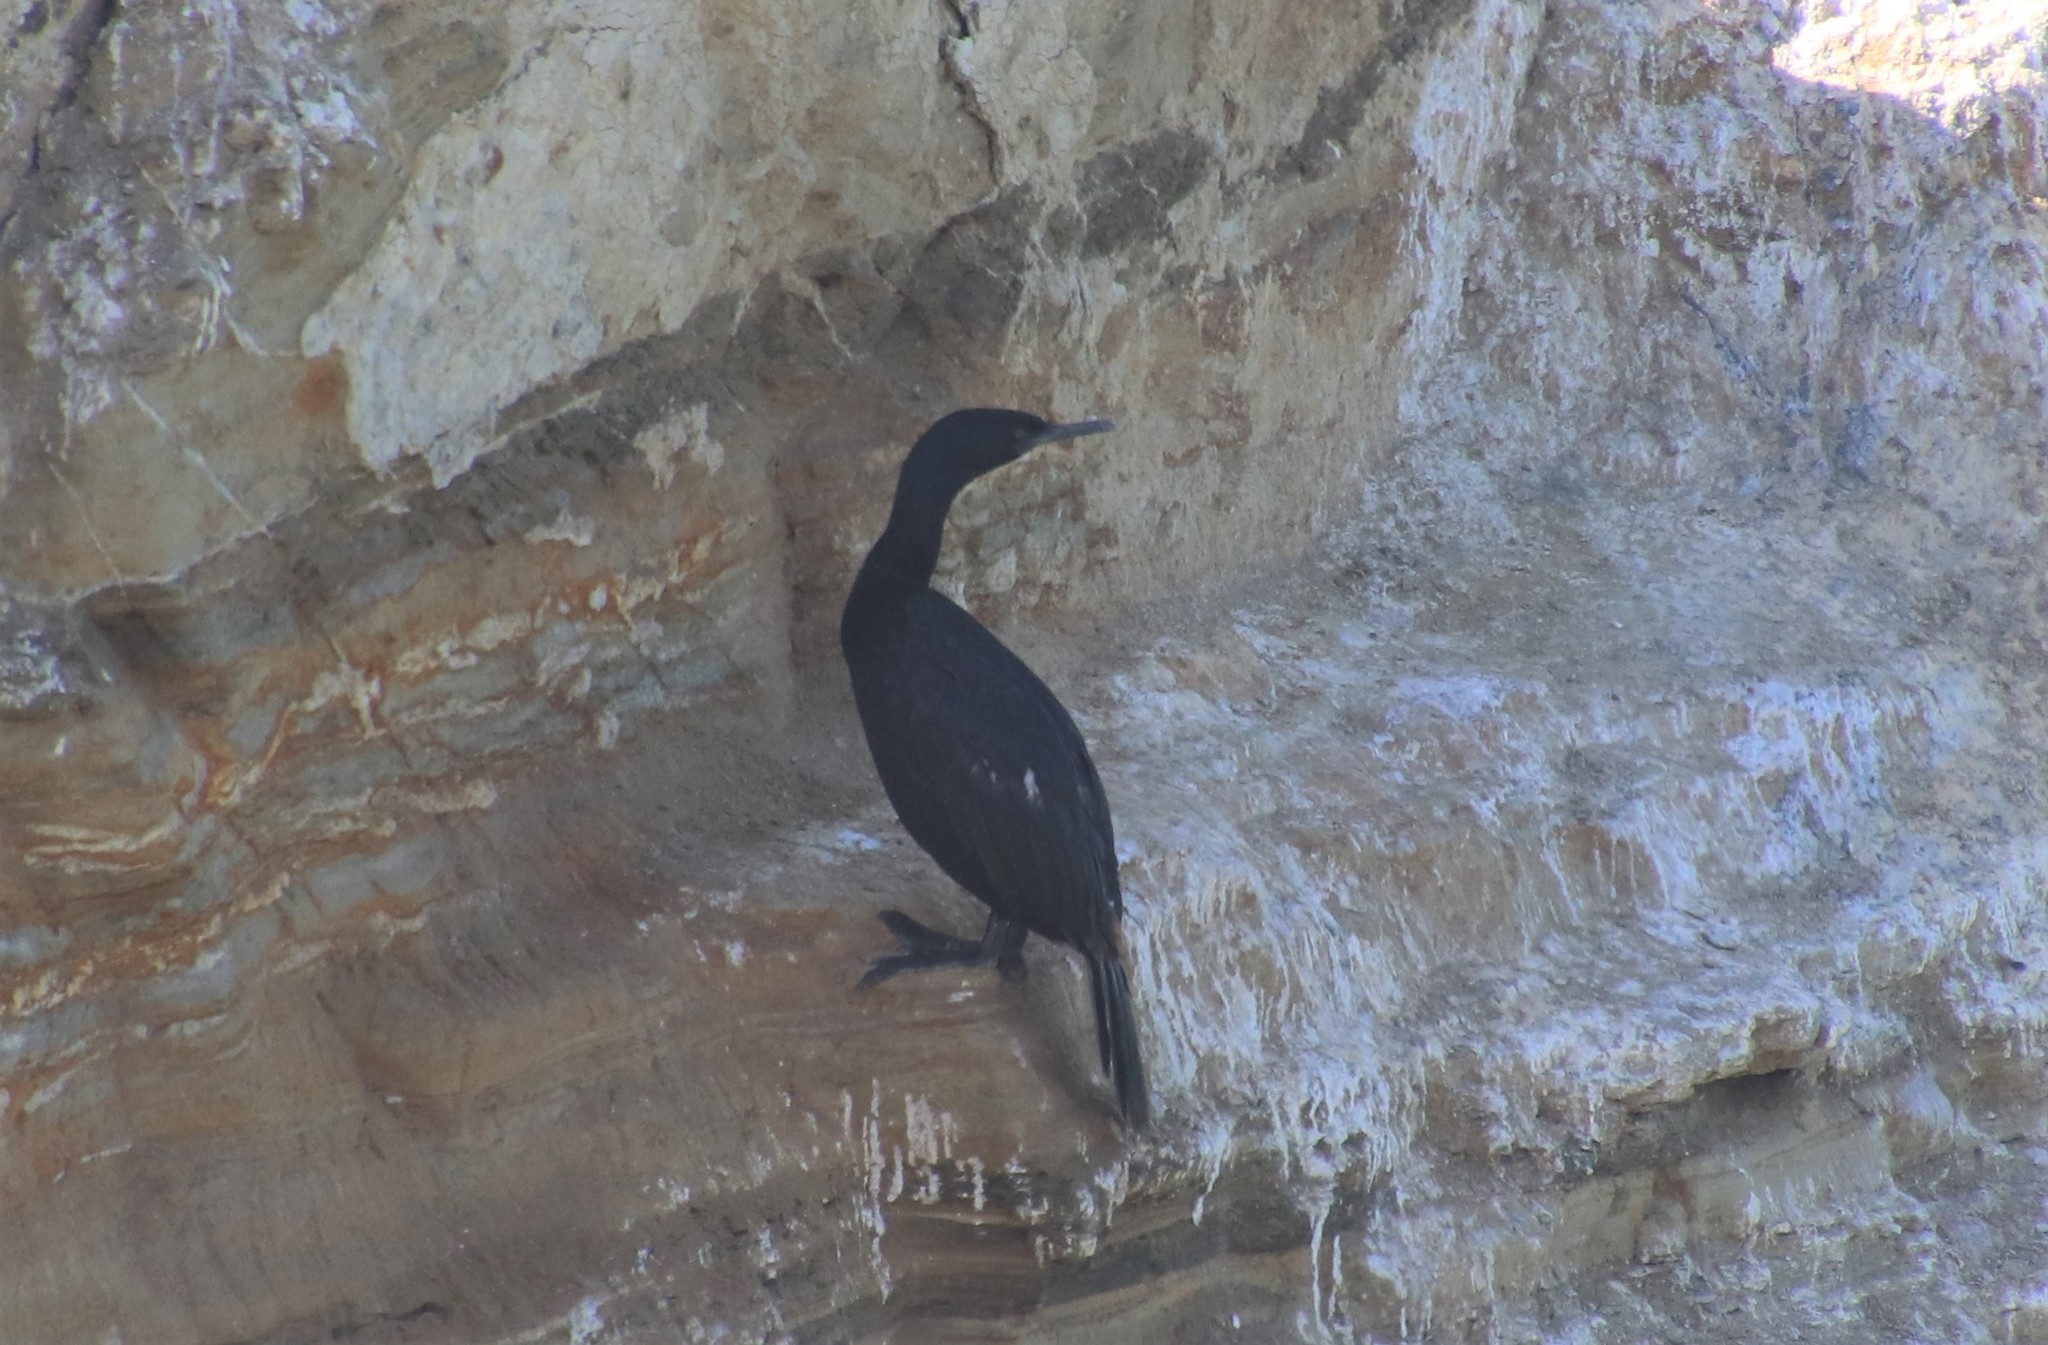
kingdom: Animalia
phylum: Chordata
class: Aves
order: Suliformes
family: Phalacrocoracidae
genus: Phalacrocorax
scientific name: Phalacrocorax pelagicus
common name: Pelagic cormorant
